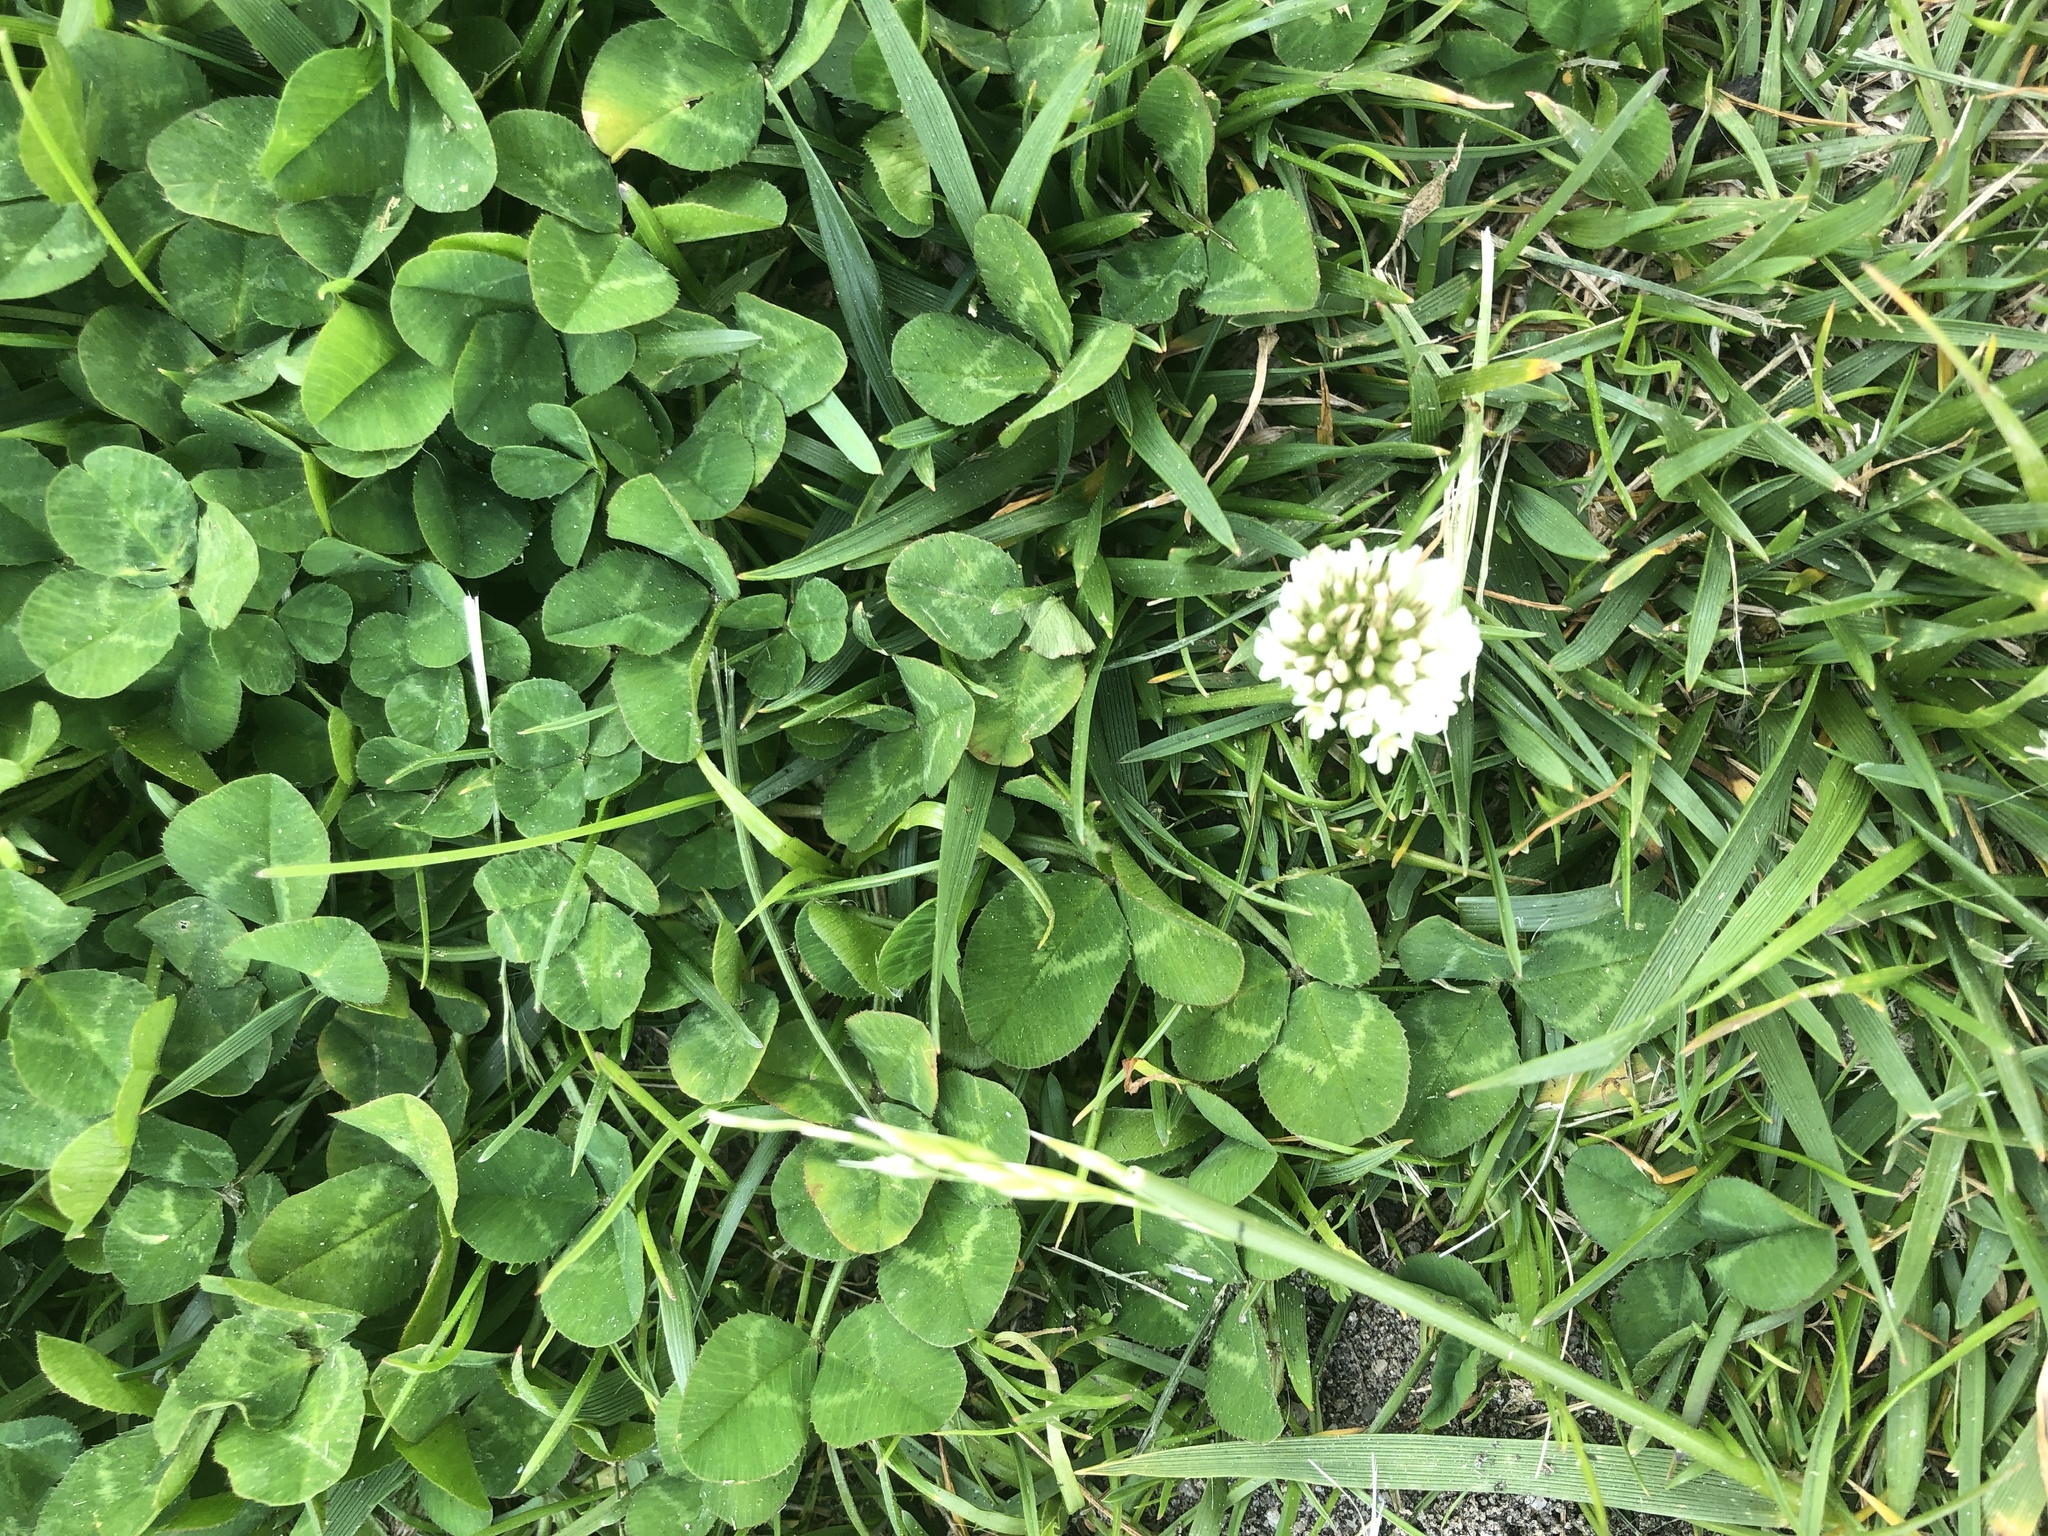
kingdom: Plantae
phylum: Tracheophyta
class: Magnoliopsida
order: Fabales
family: Fabaceae
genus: Trifolium
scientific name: Trifolium repens
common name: White clover
